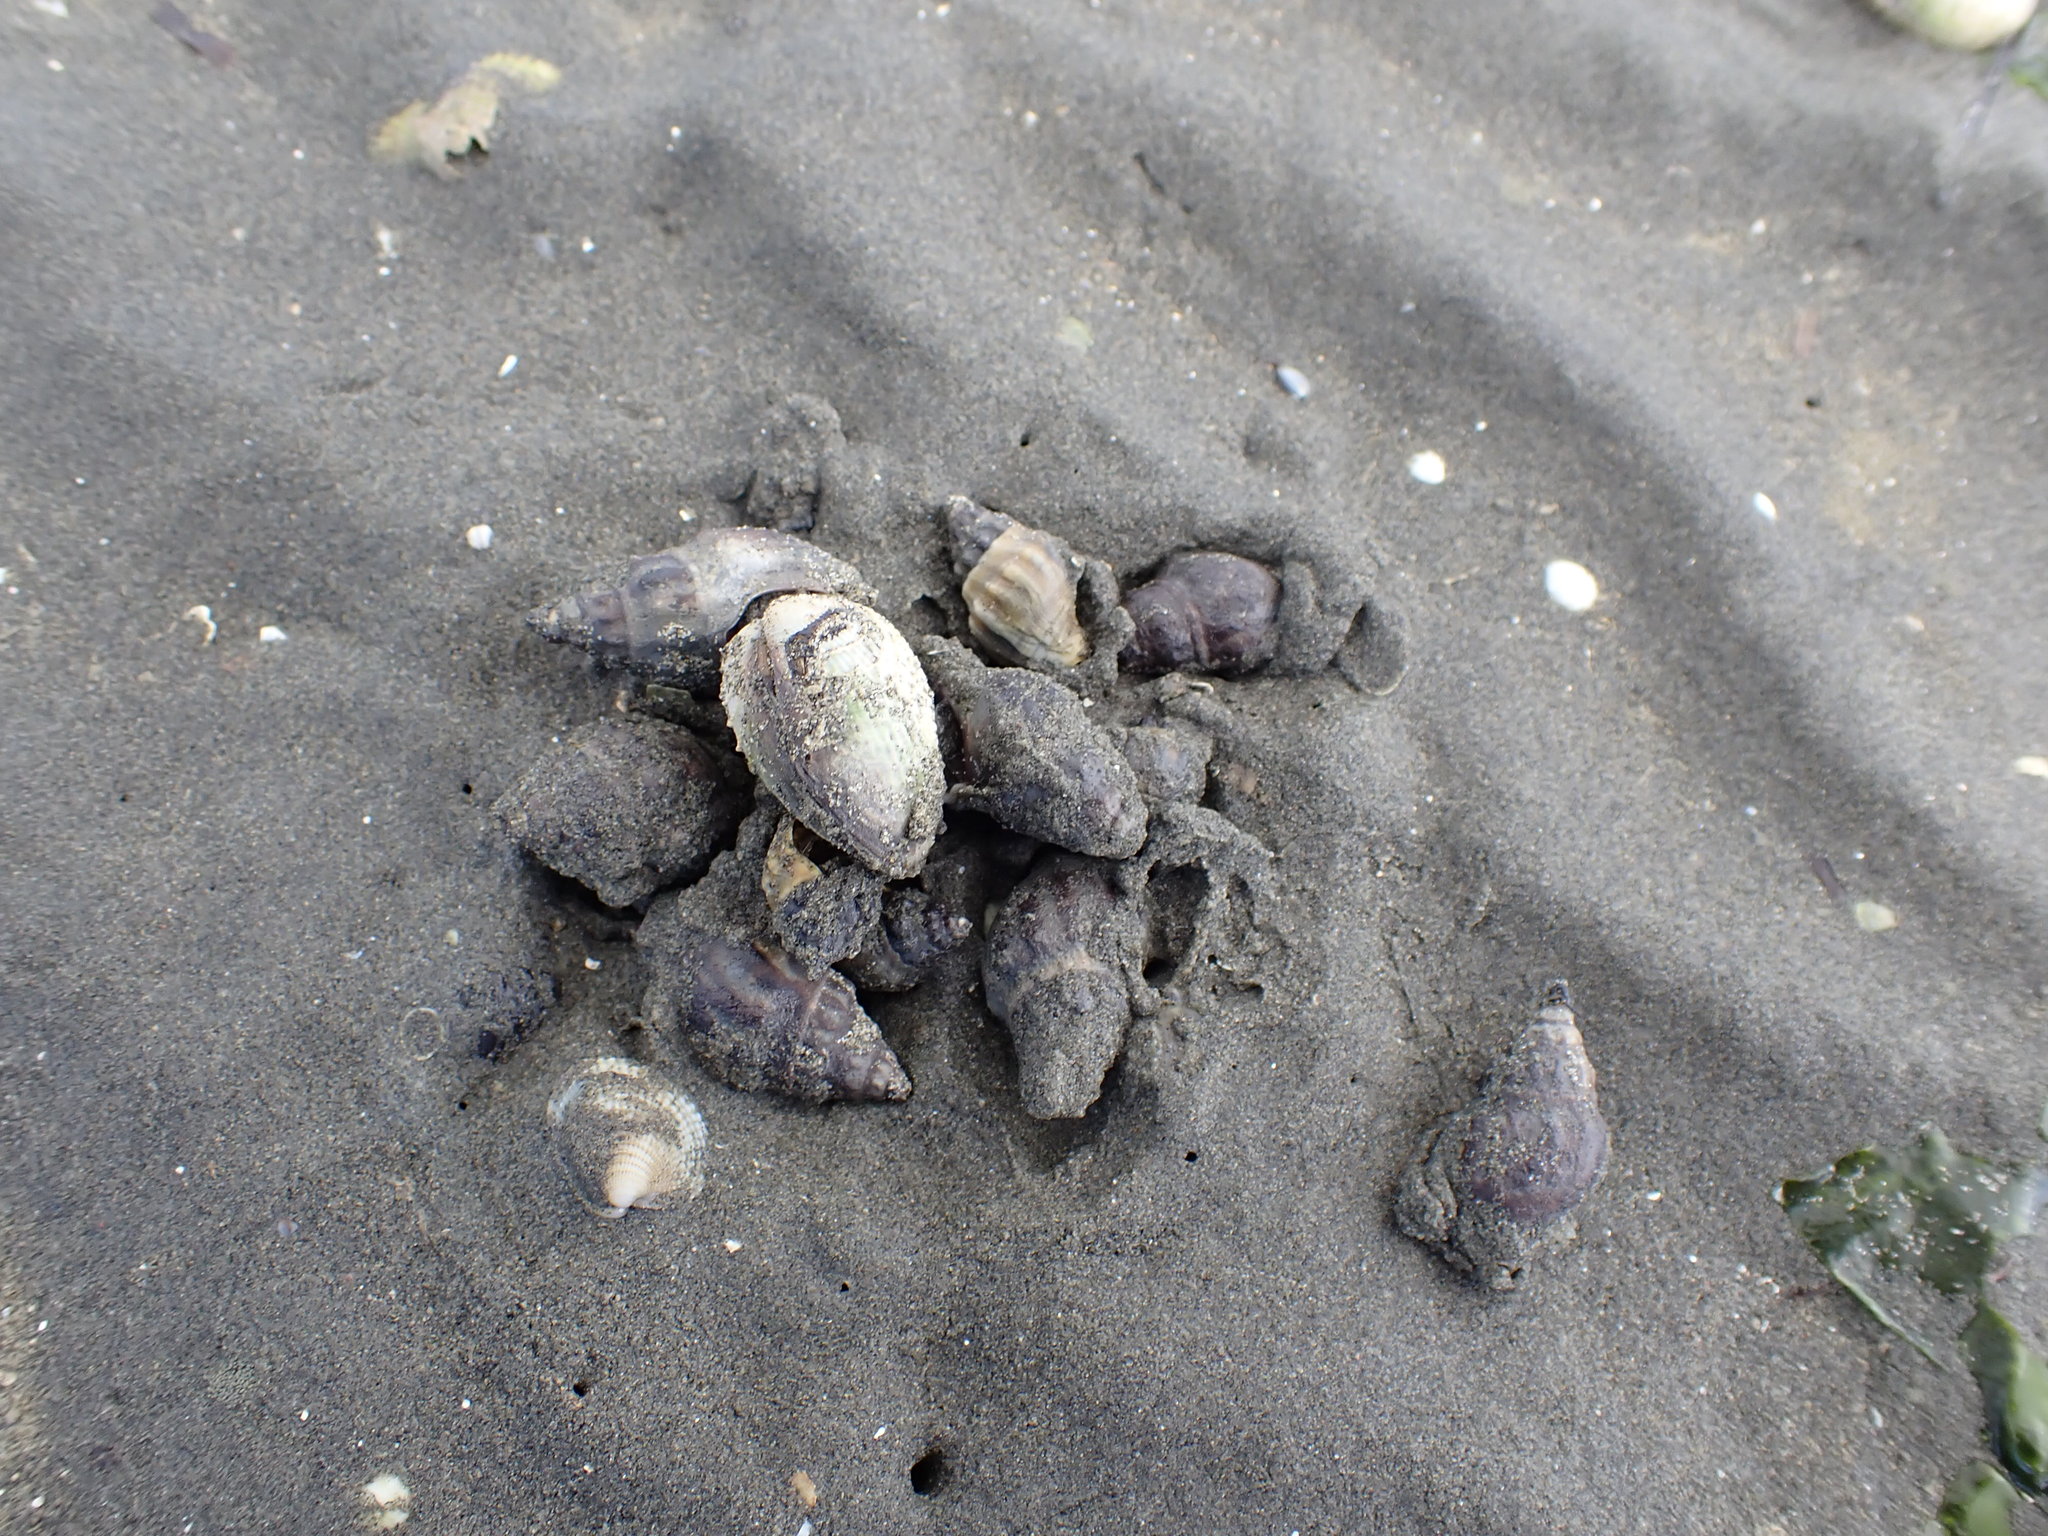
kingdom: Animalia
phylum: Mollusca
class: Gastropoda
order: Neogastropoda
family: Cominellidae
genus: Cominella
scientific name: Cominella glandiformis
